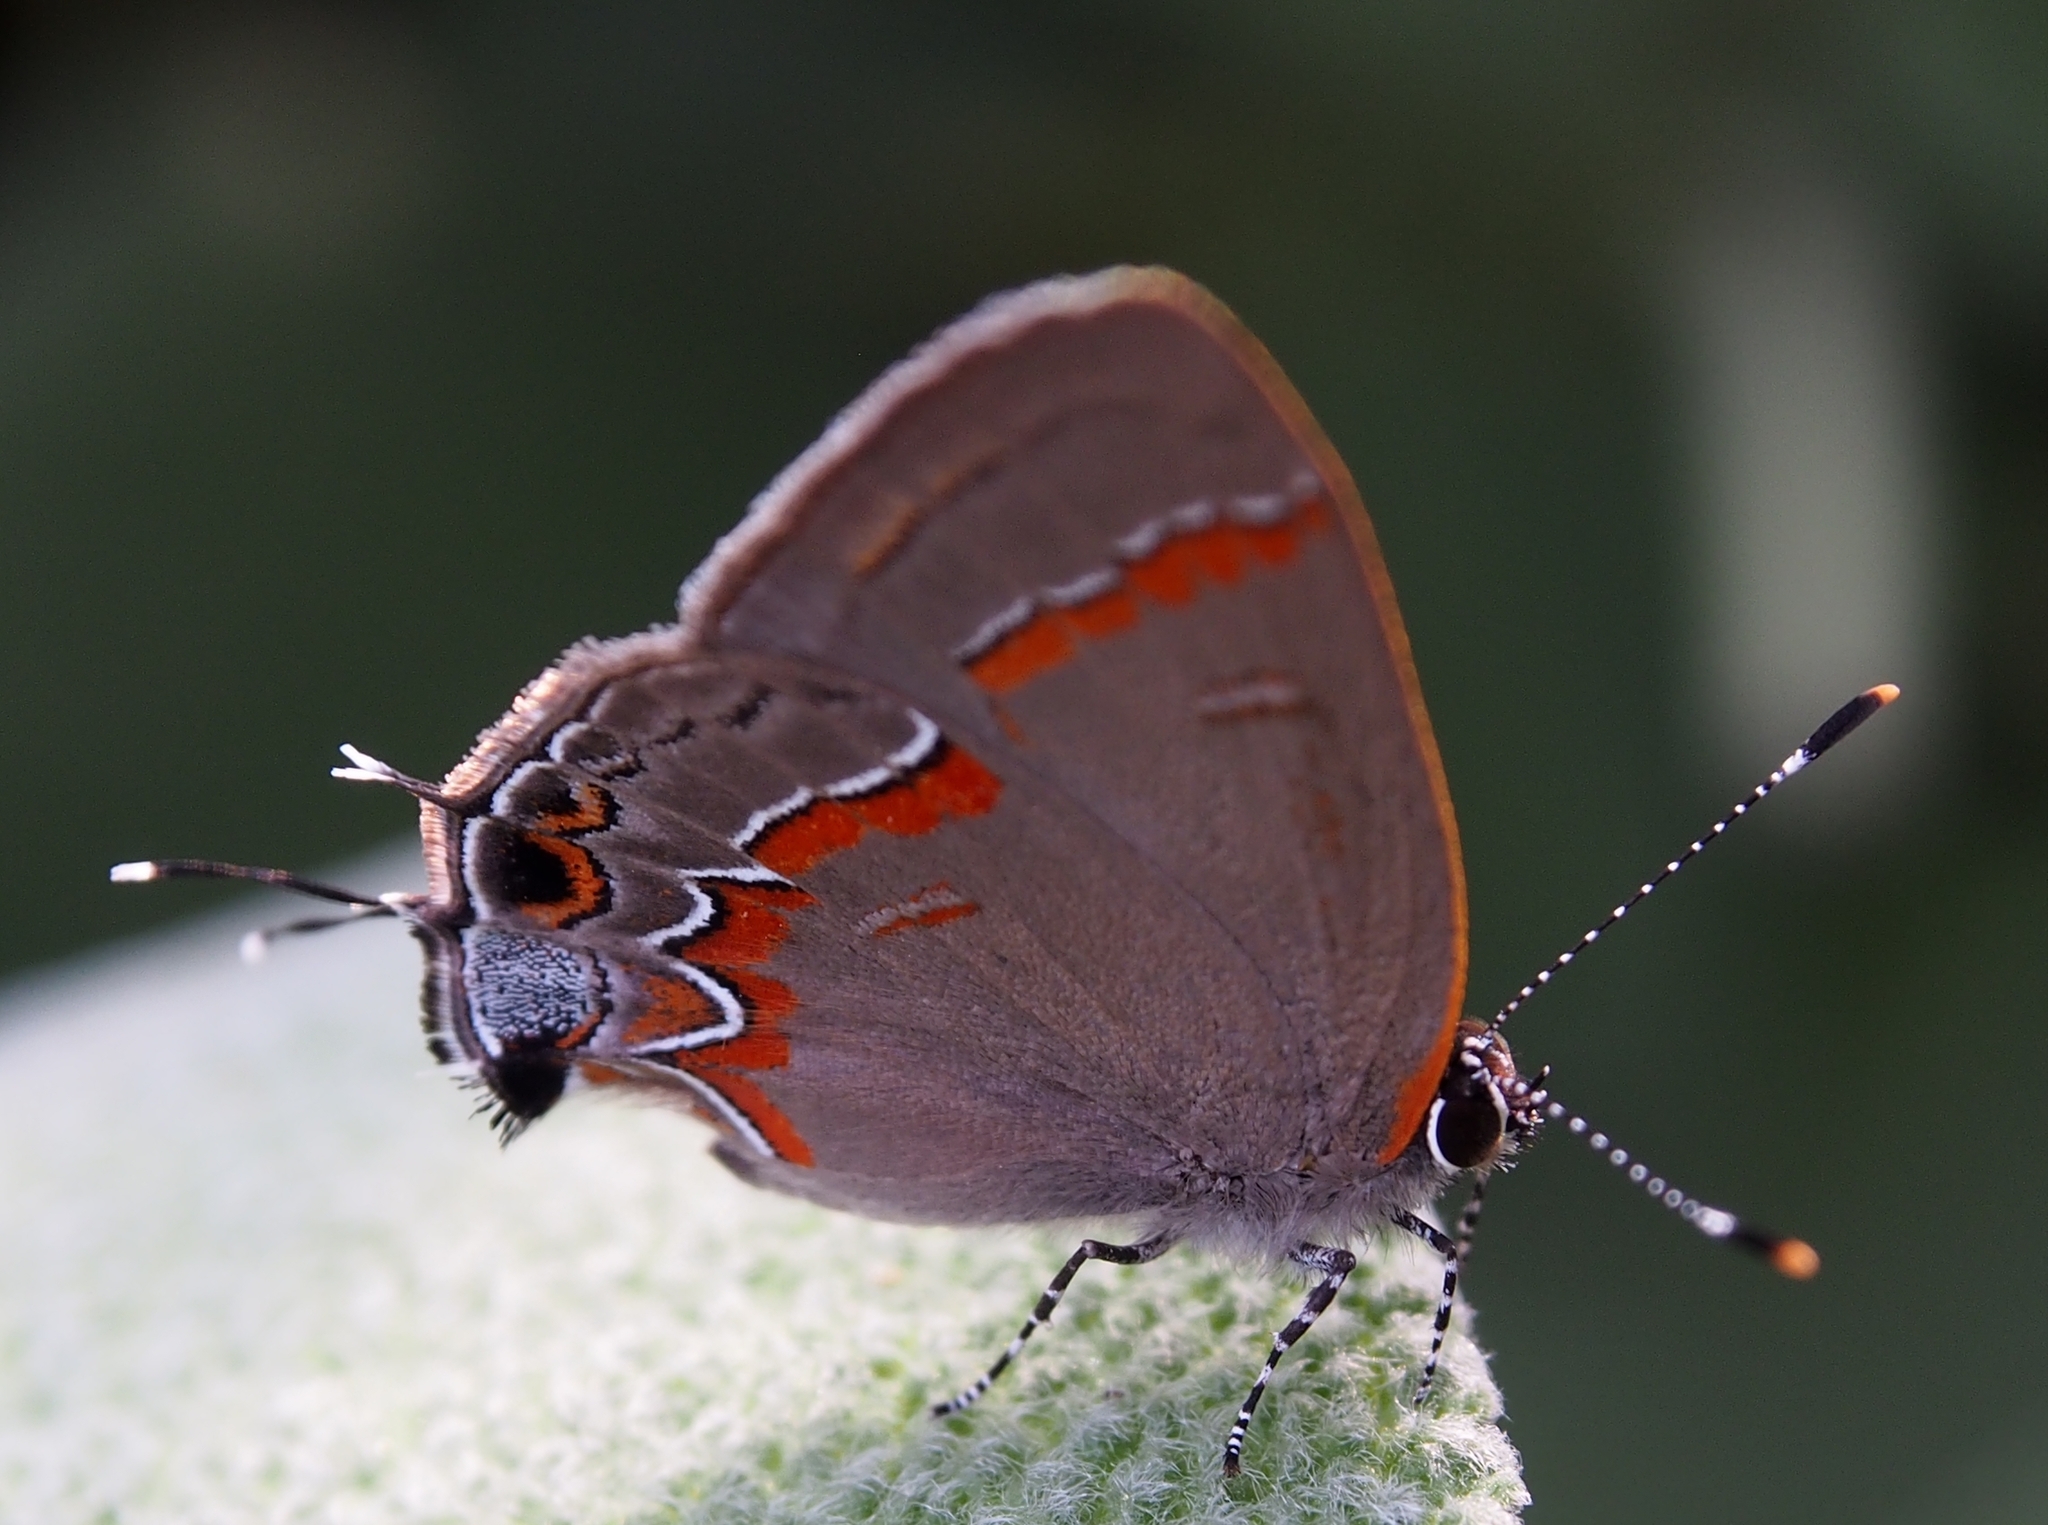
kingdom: Animalia
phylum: Arthropoda
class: Insecta
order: Lepidoptera
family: Lycaenidae
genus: Calycopis
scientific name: Calycopis cecrops
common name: Red-banded hairstreak
